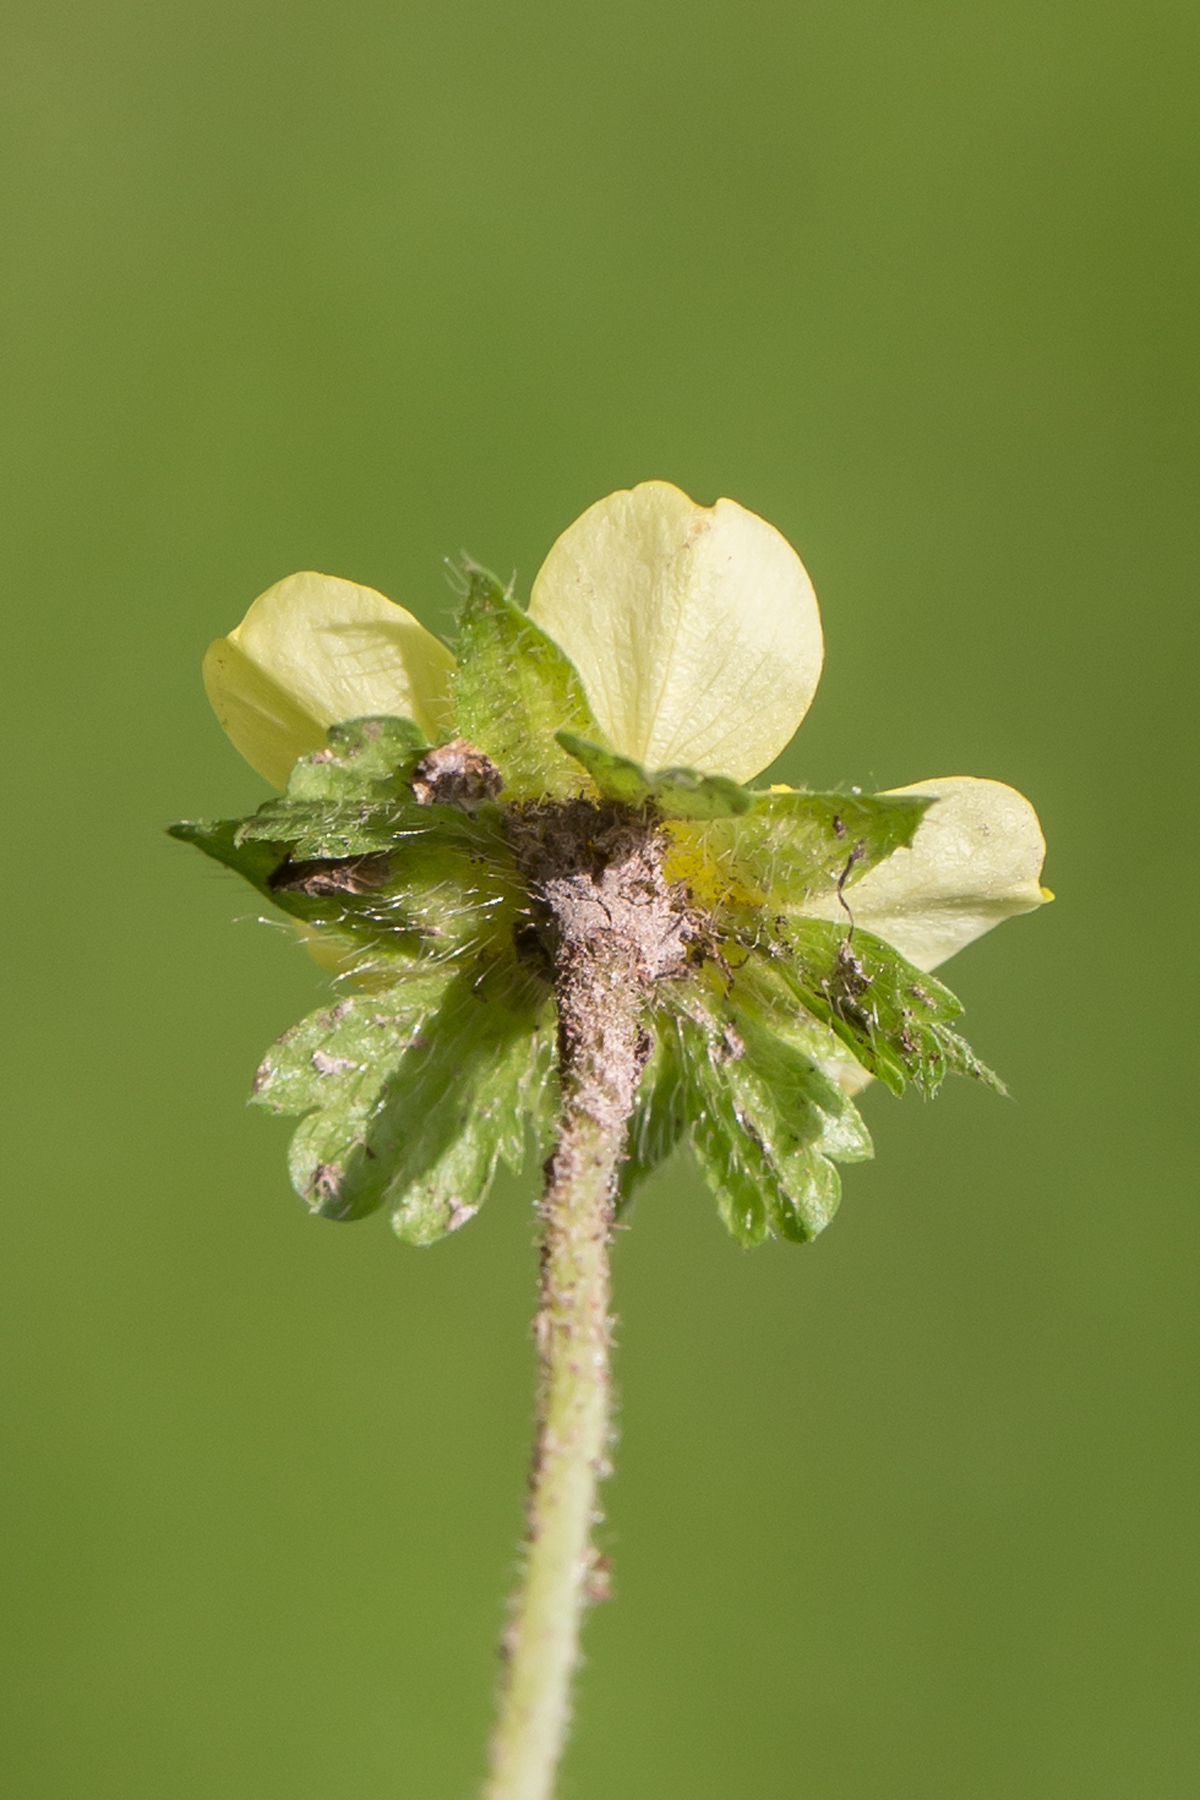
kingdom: Plantae
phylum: Tracheophyta
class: Magnoliopsida
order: Rosales
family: Rosaceae
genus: Potentilla
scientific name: Potentilla indica
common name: Yellow-flowered strawberry
